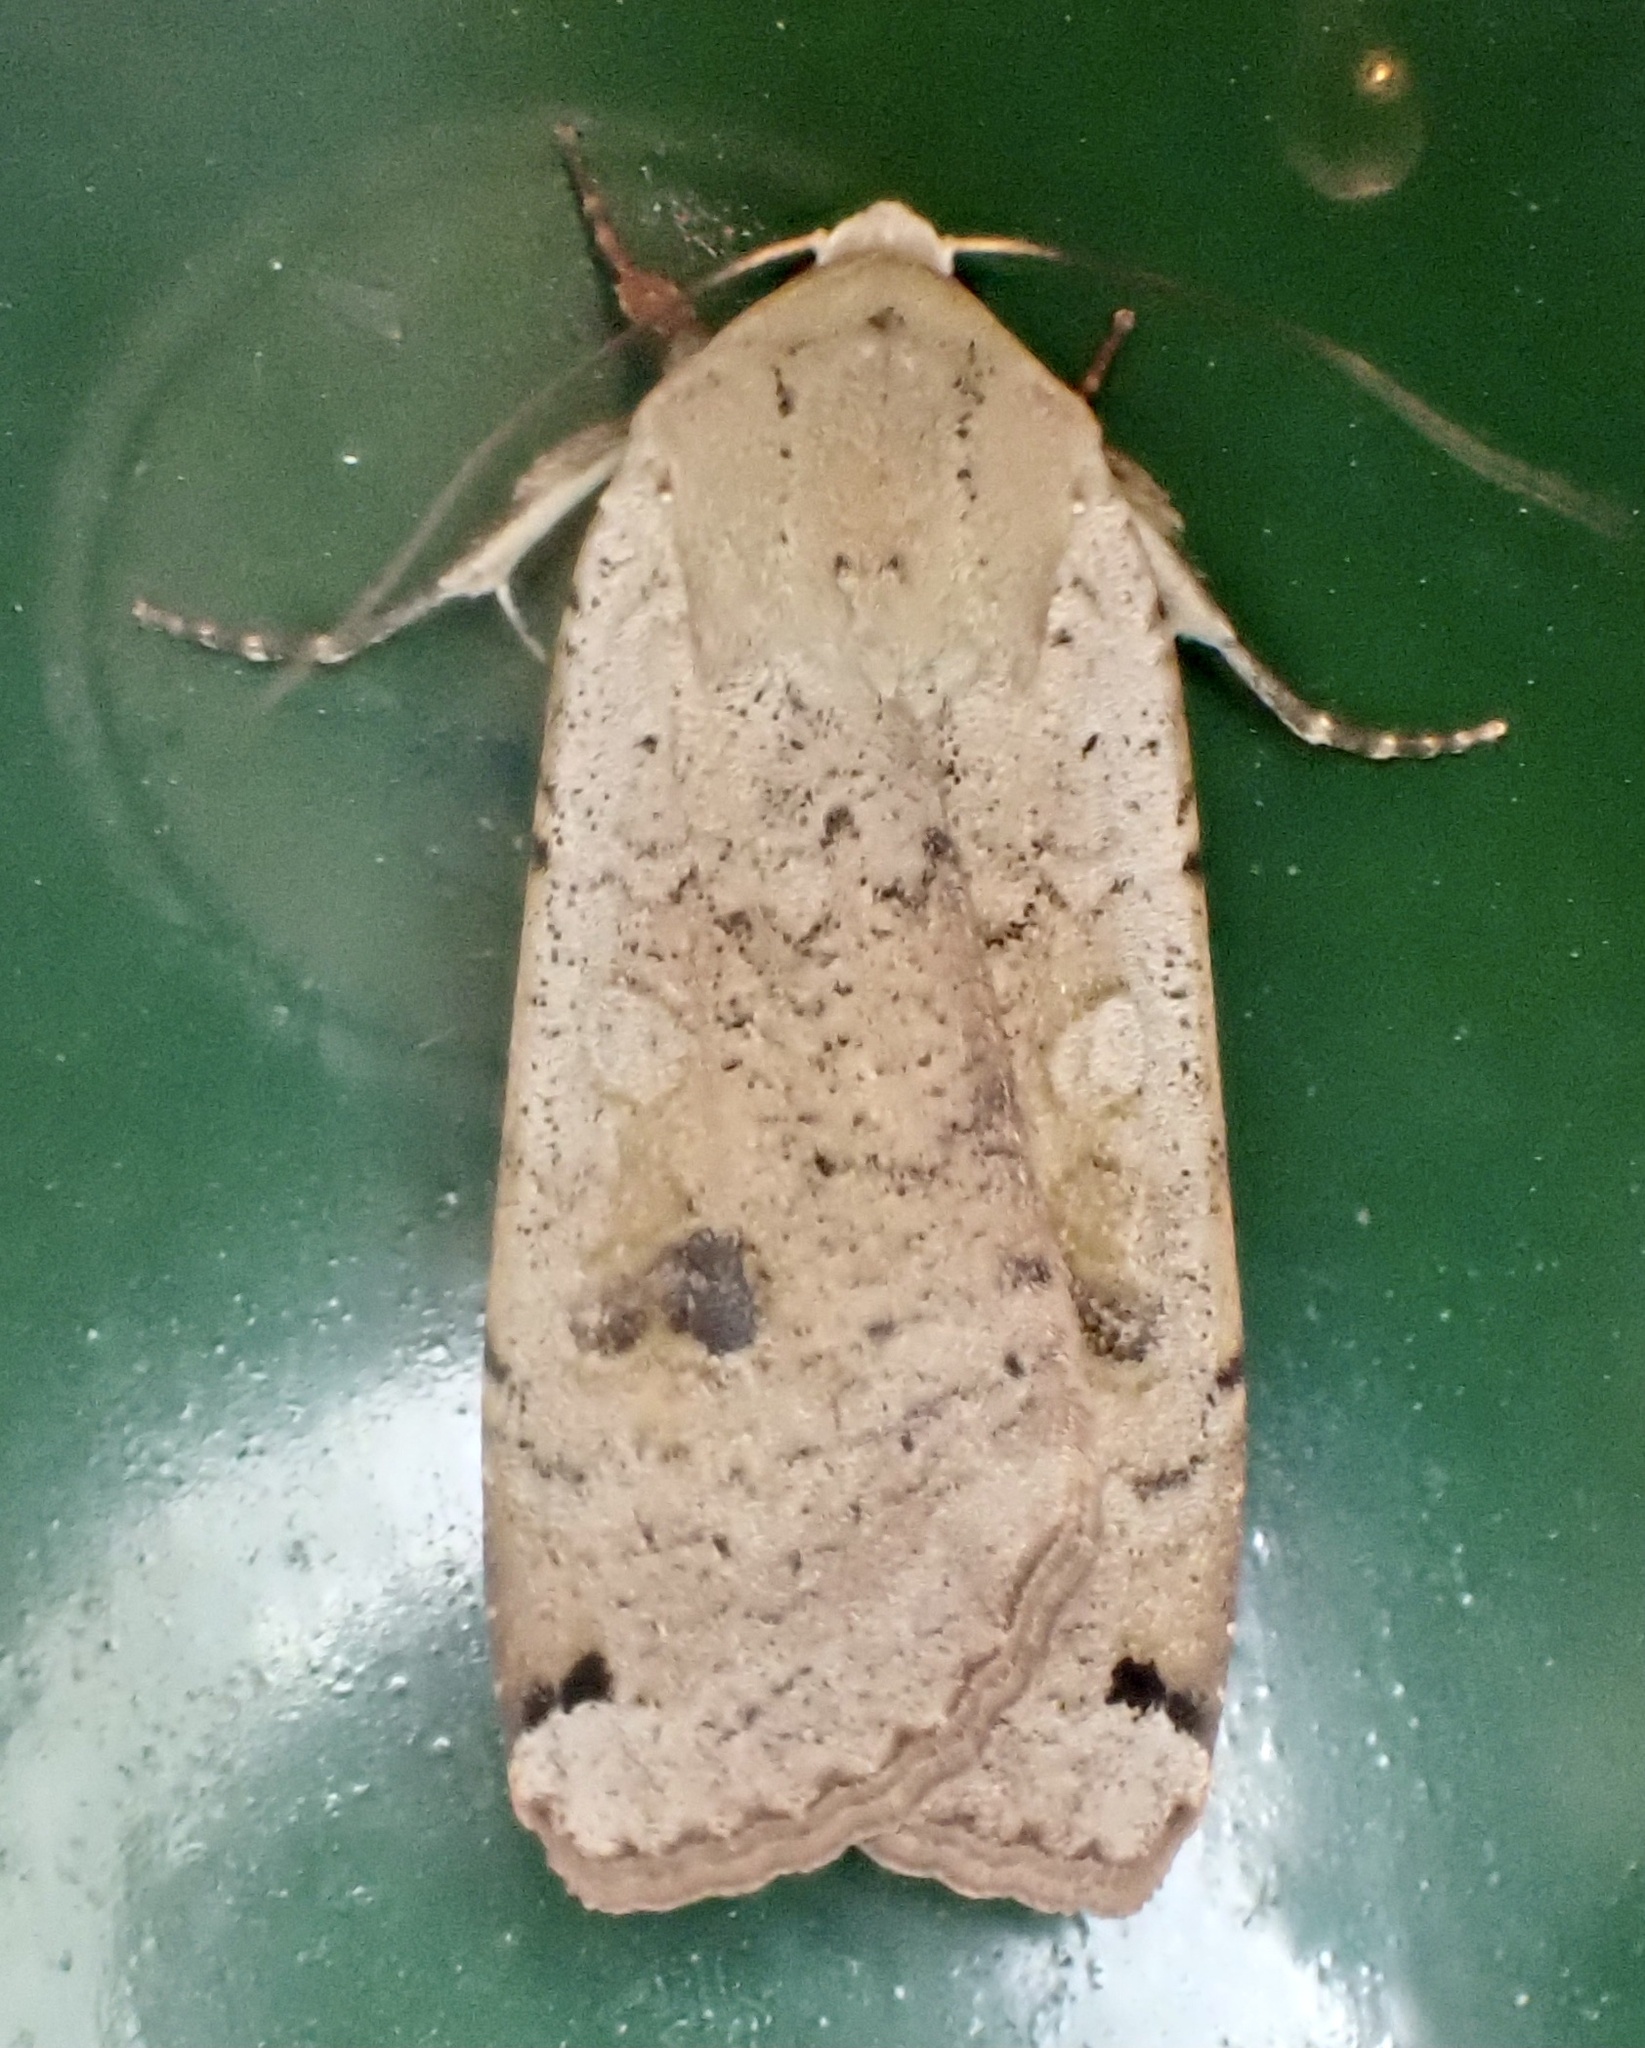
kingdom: Animalia
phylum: Arthropoda
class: Insecta
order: Lepidoptera
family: Noctuidae
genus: Noctua
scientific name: Noctua pronuba
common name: Large yellow underwing
